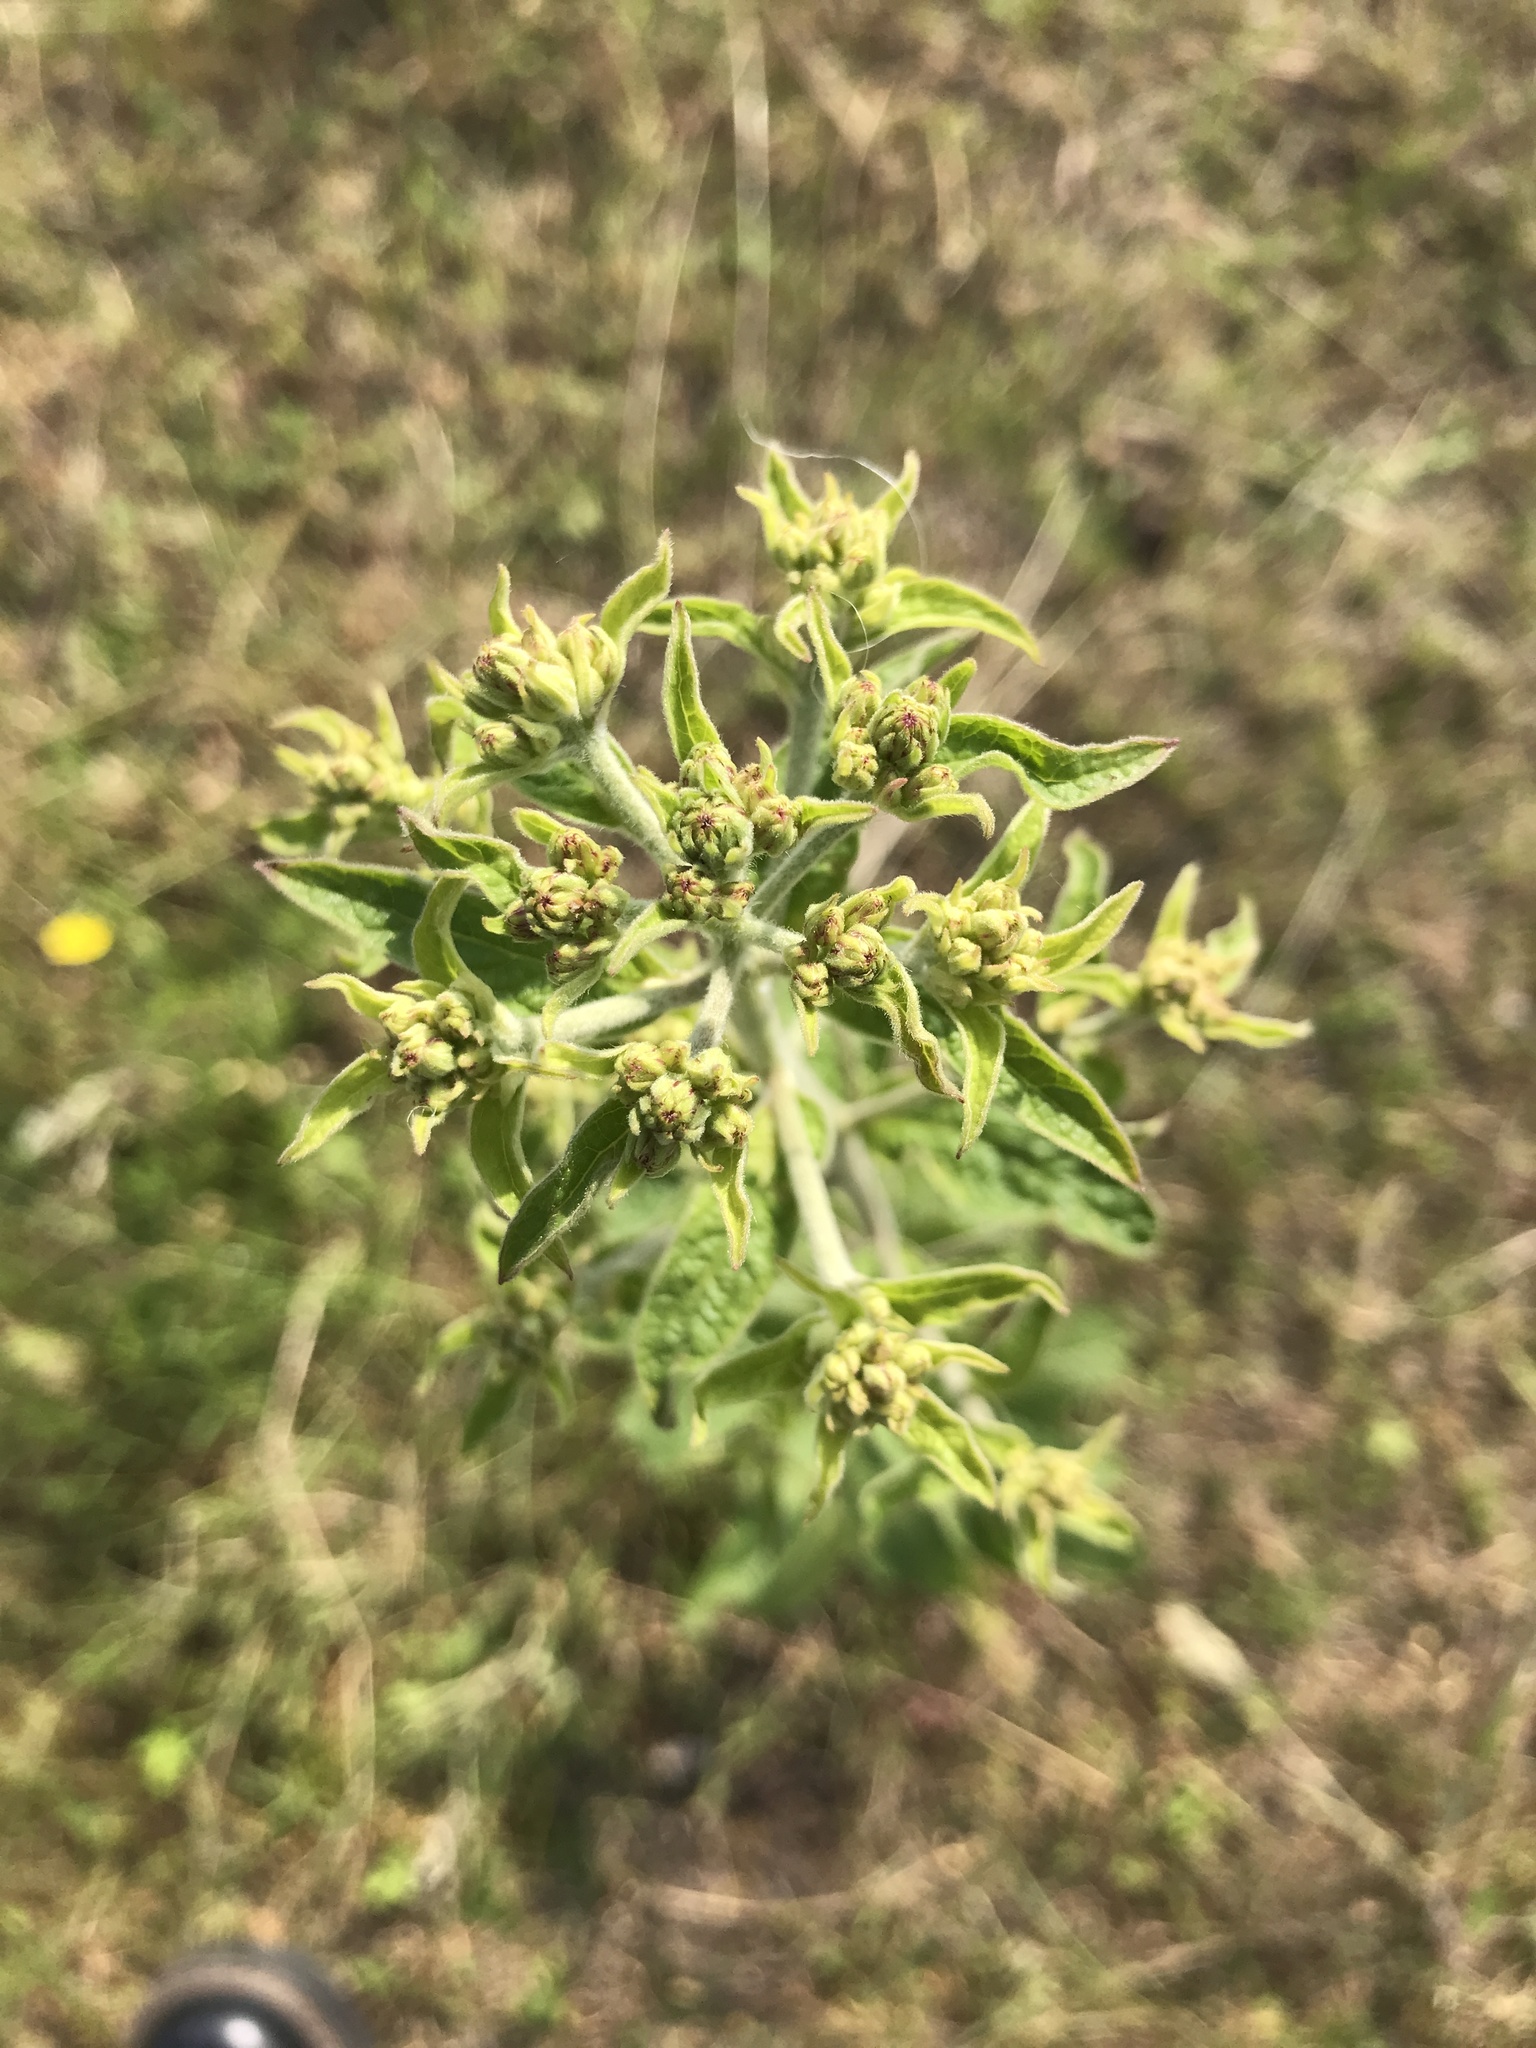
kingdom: Plantae
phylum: Tracheophyta
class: Magnoliopsida
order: Asterales
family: Asteraceae
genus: Pentanema
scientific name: Pentanema squarrosum
